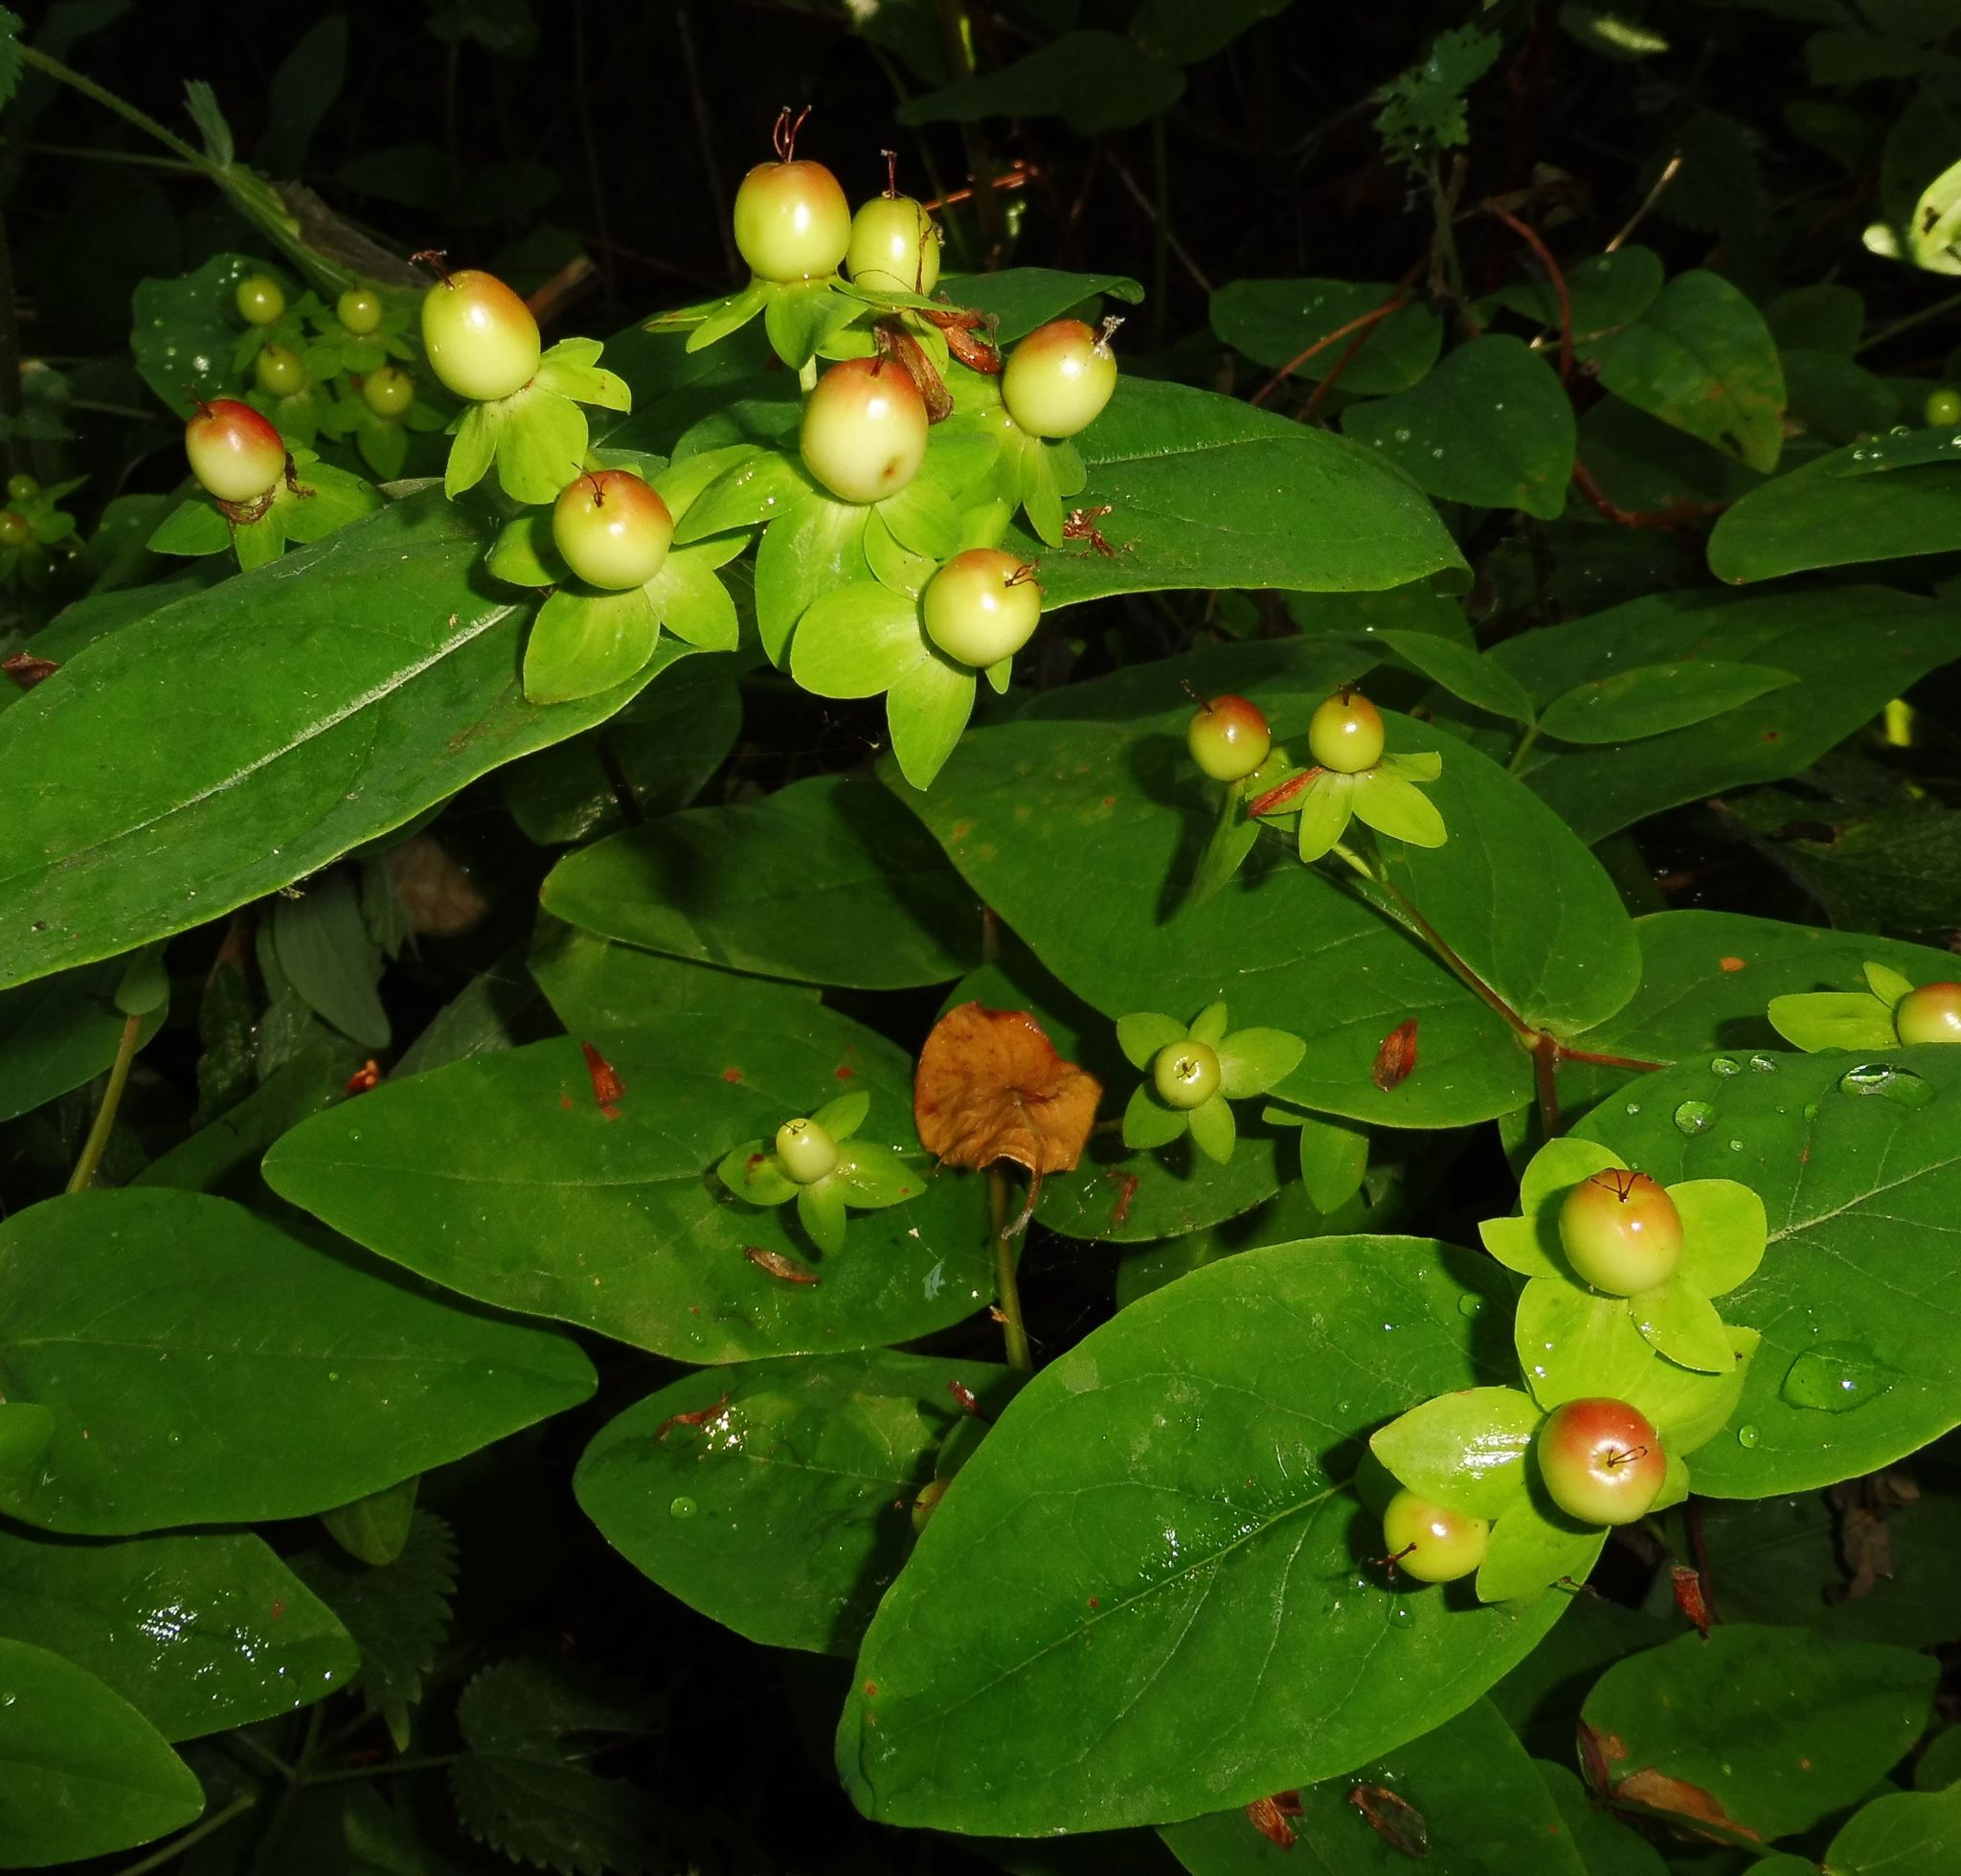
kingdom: Plantae
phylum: Tracheophyta
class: Magnoliopsida
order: Malpighiales
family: Hypericaceae
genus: Hypericum
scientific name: Hypericum androsaemum
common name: Sweet-amber
